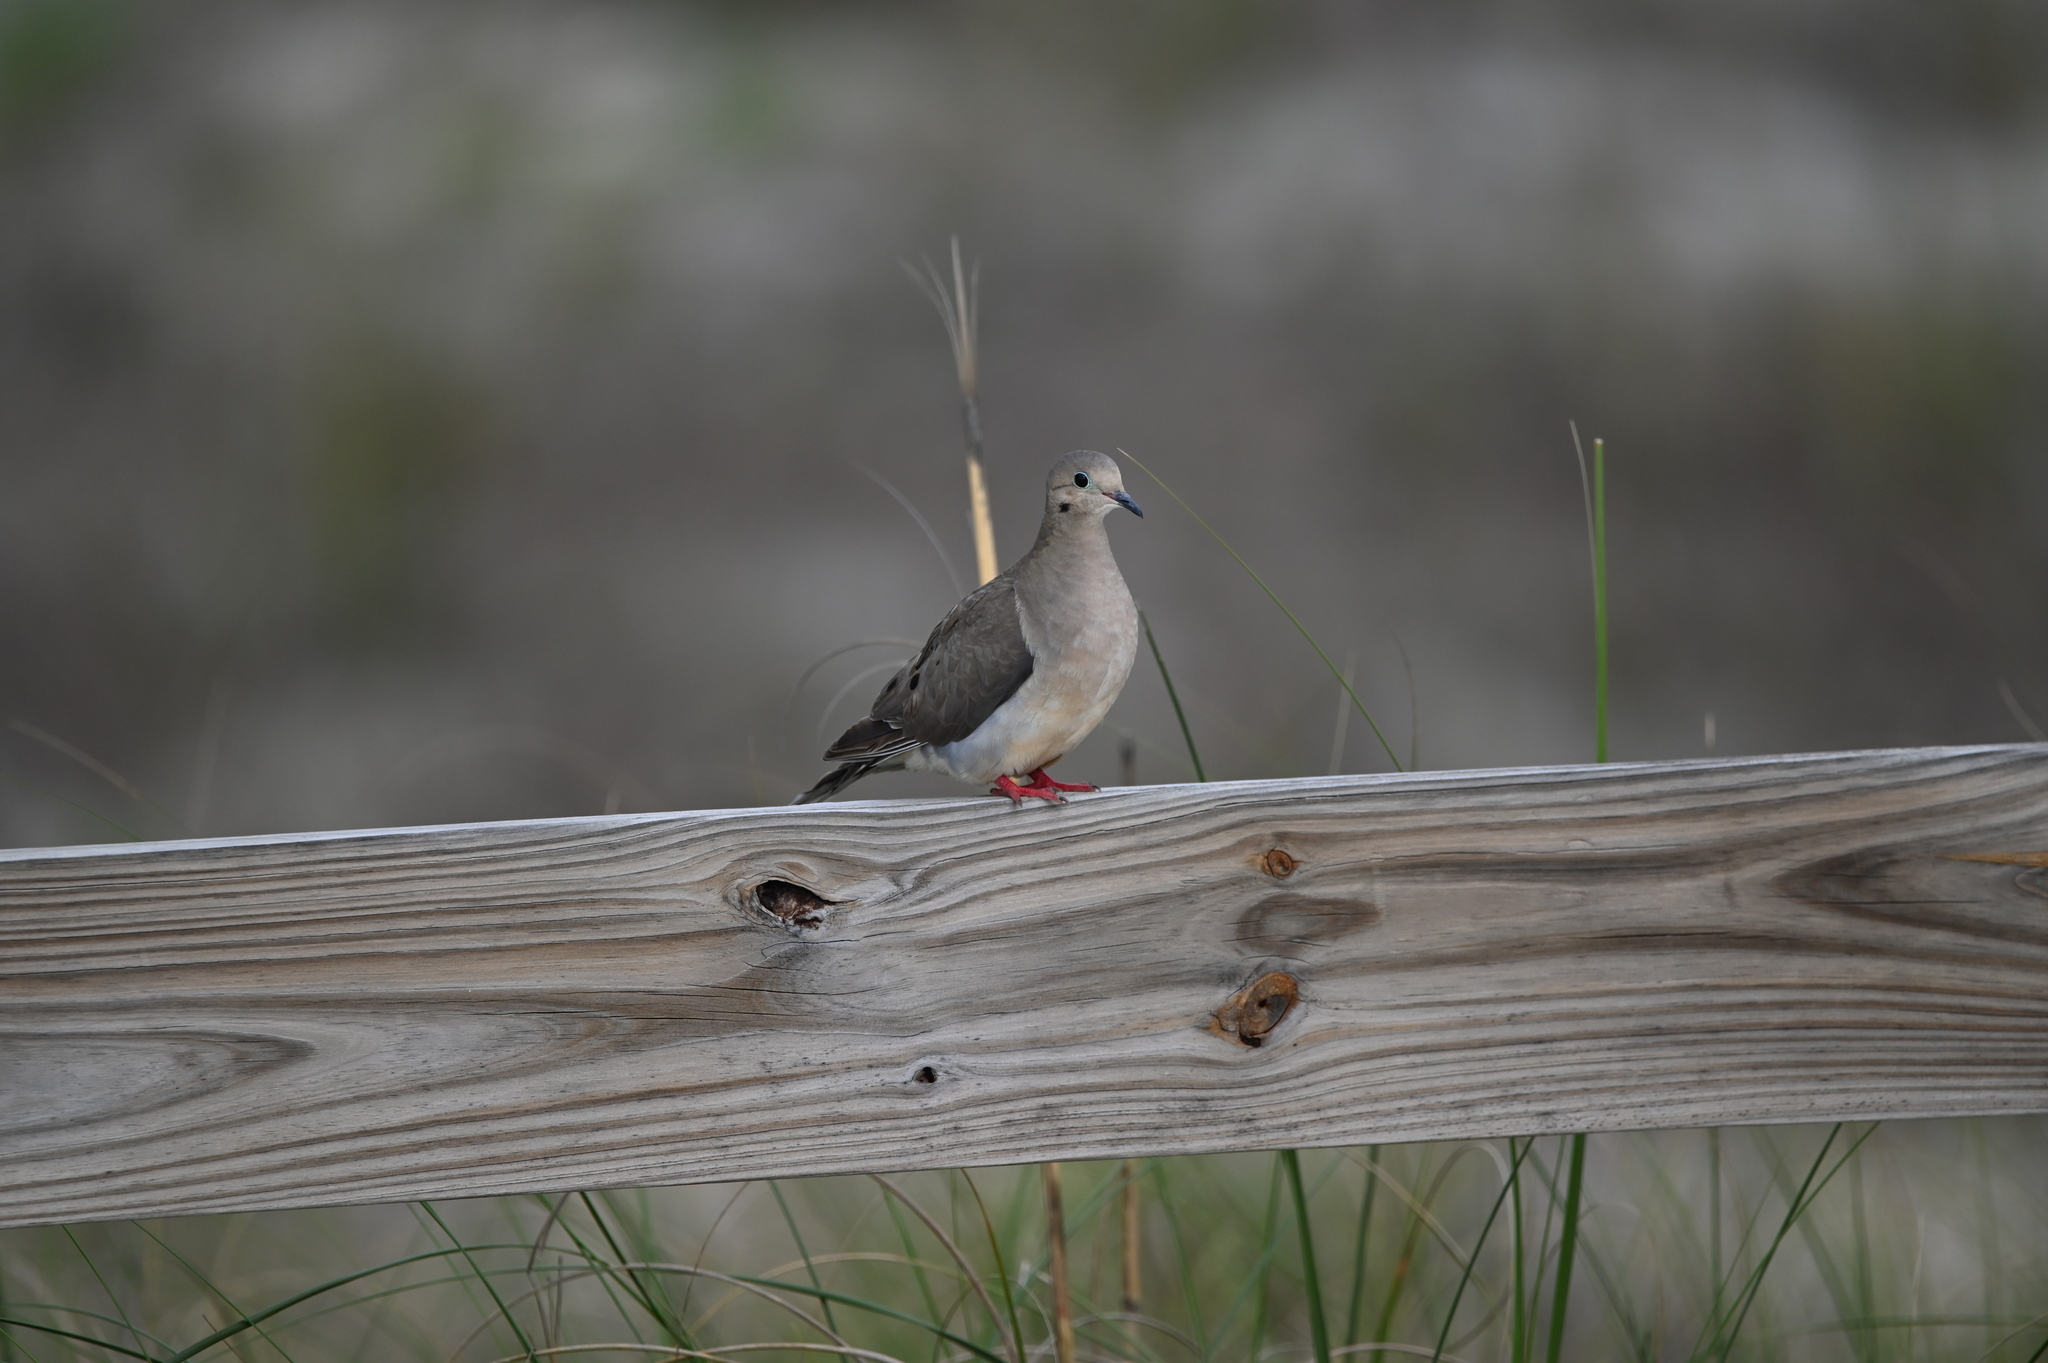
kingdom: Animalia
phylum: Chordata
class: Aves
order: Columbiformes
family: Columbidae
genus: Zenaida
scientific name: Zenaida macroura
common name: Mourning dove
